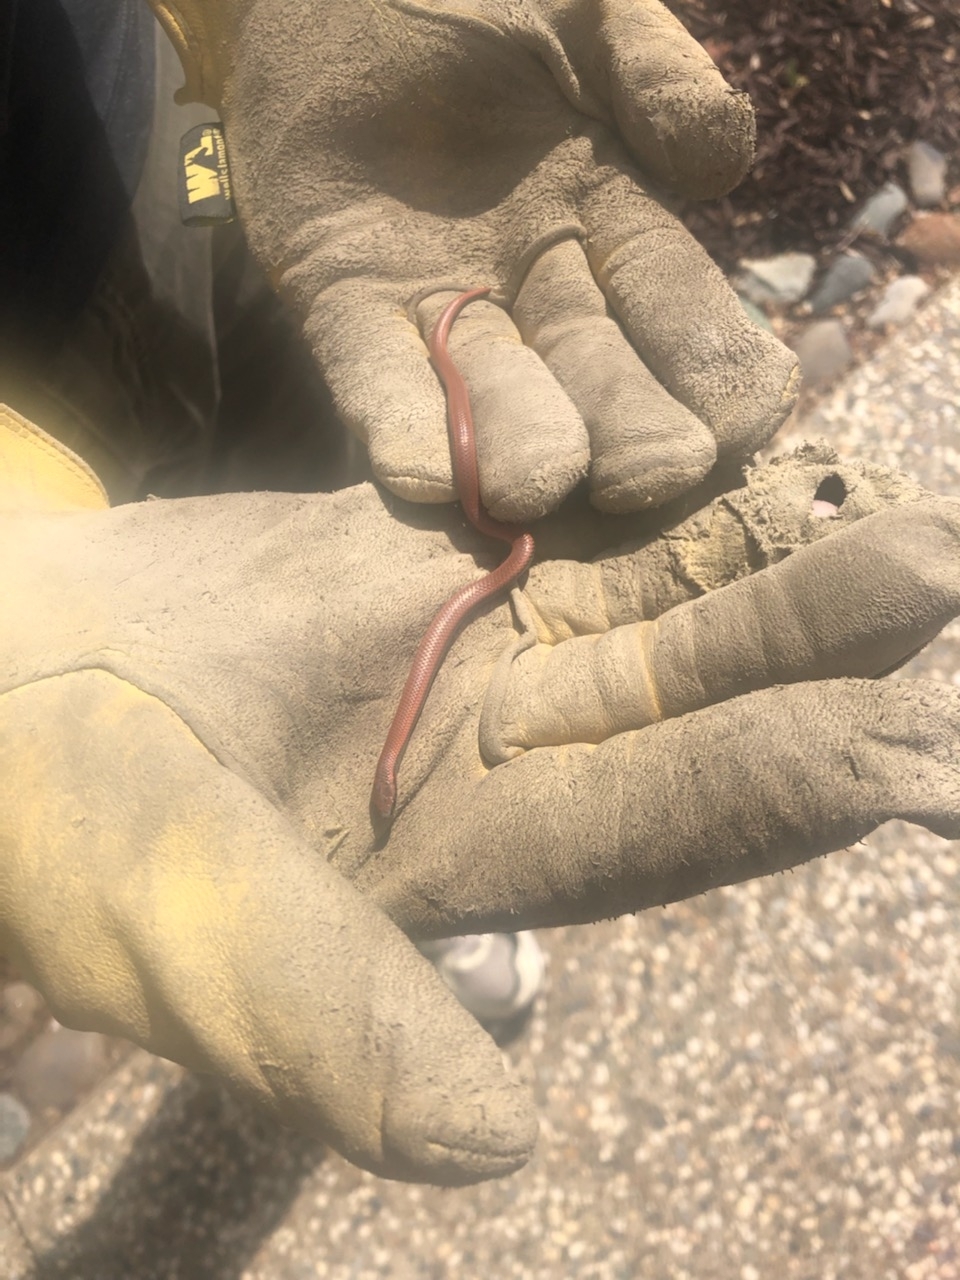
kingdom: Animalia
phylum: Chordata
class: Squamata
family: Colubridae
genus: Contia
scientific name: Contia tenuis
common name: Sharptail snake
